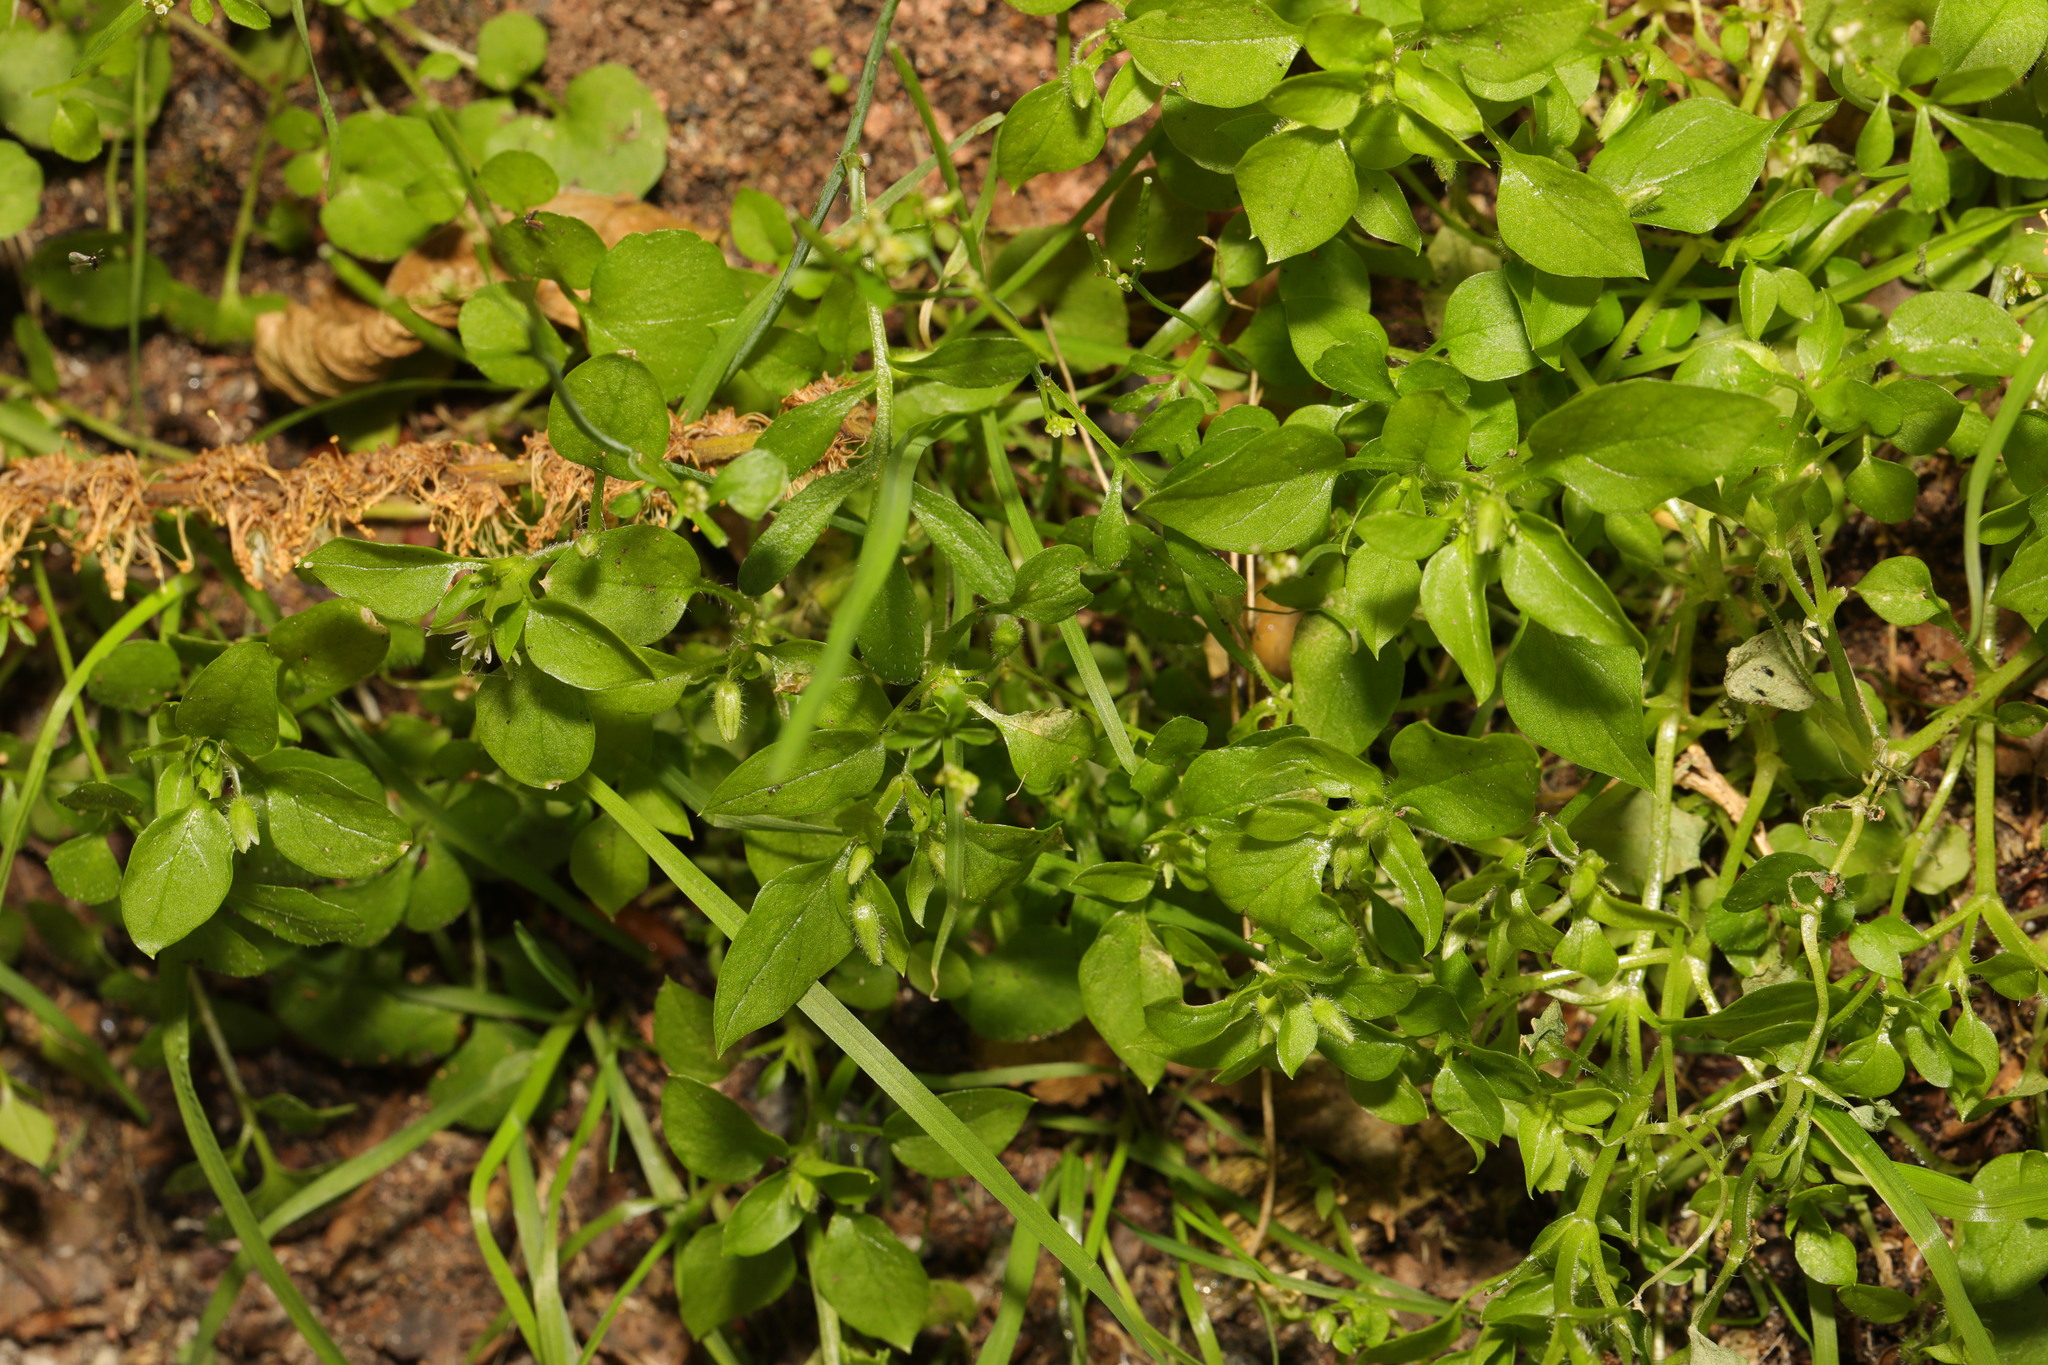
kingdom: Plantae
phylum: Tracheophyta
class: Magnoliopsida
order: Caryophyllales
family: Caryophyllaceae
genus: Stellaria
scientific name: Stellaria media
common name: Common chickweed
